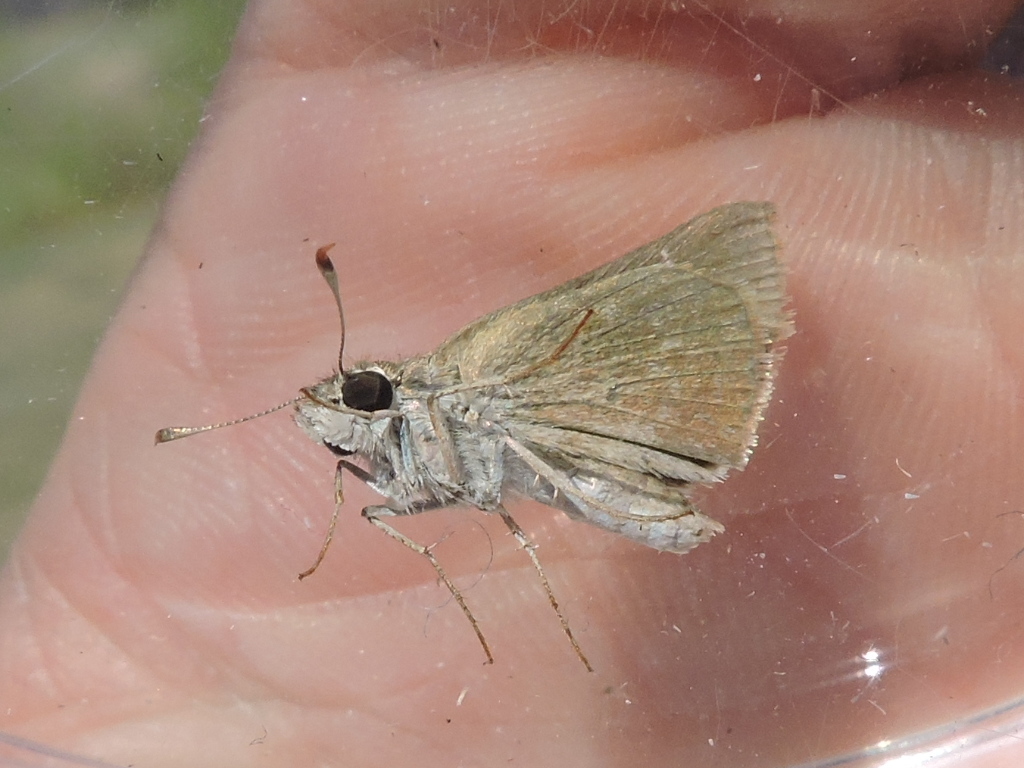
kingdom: Animalia
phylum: Arthropoda
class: Insecta
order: Lepidoptera
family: Hesperiidae
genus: Lerodea
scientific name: Lerodea eufala
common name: Eufala skipper
